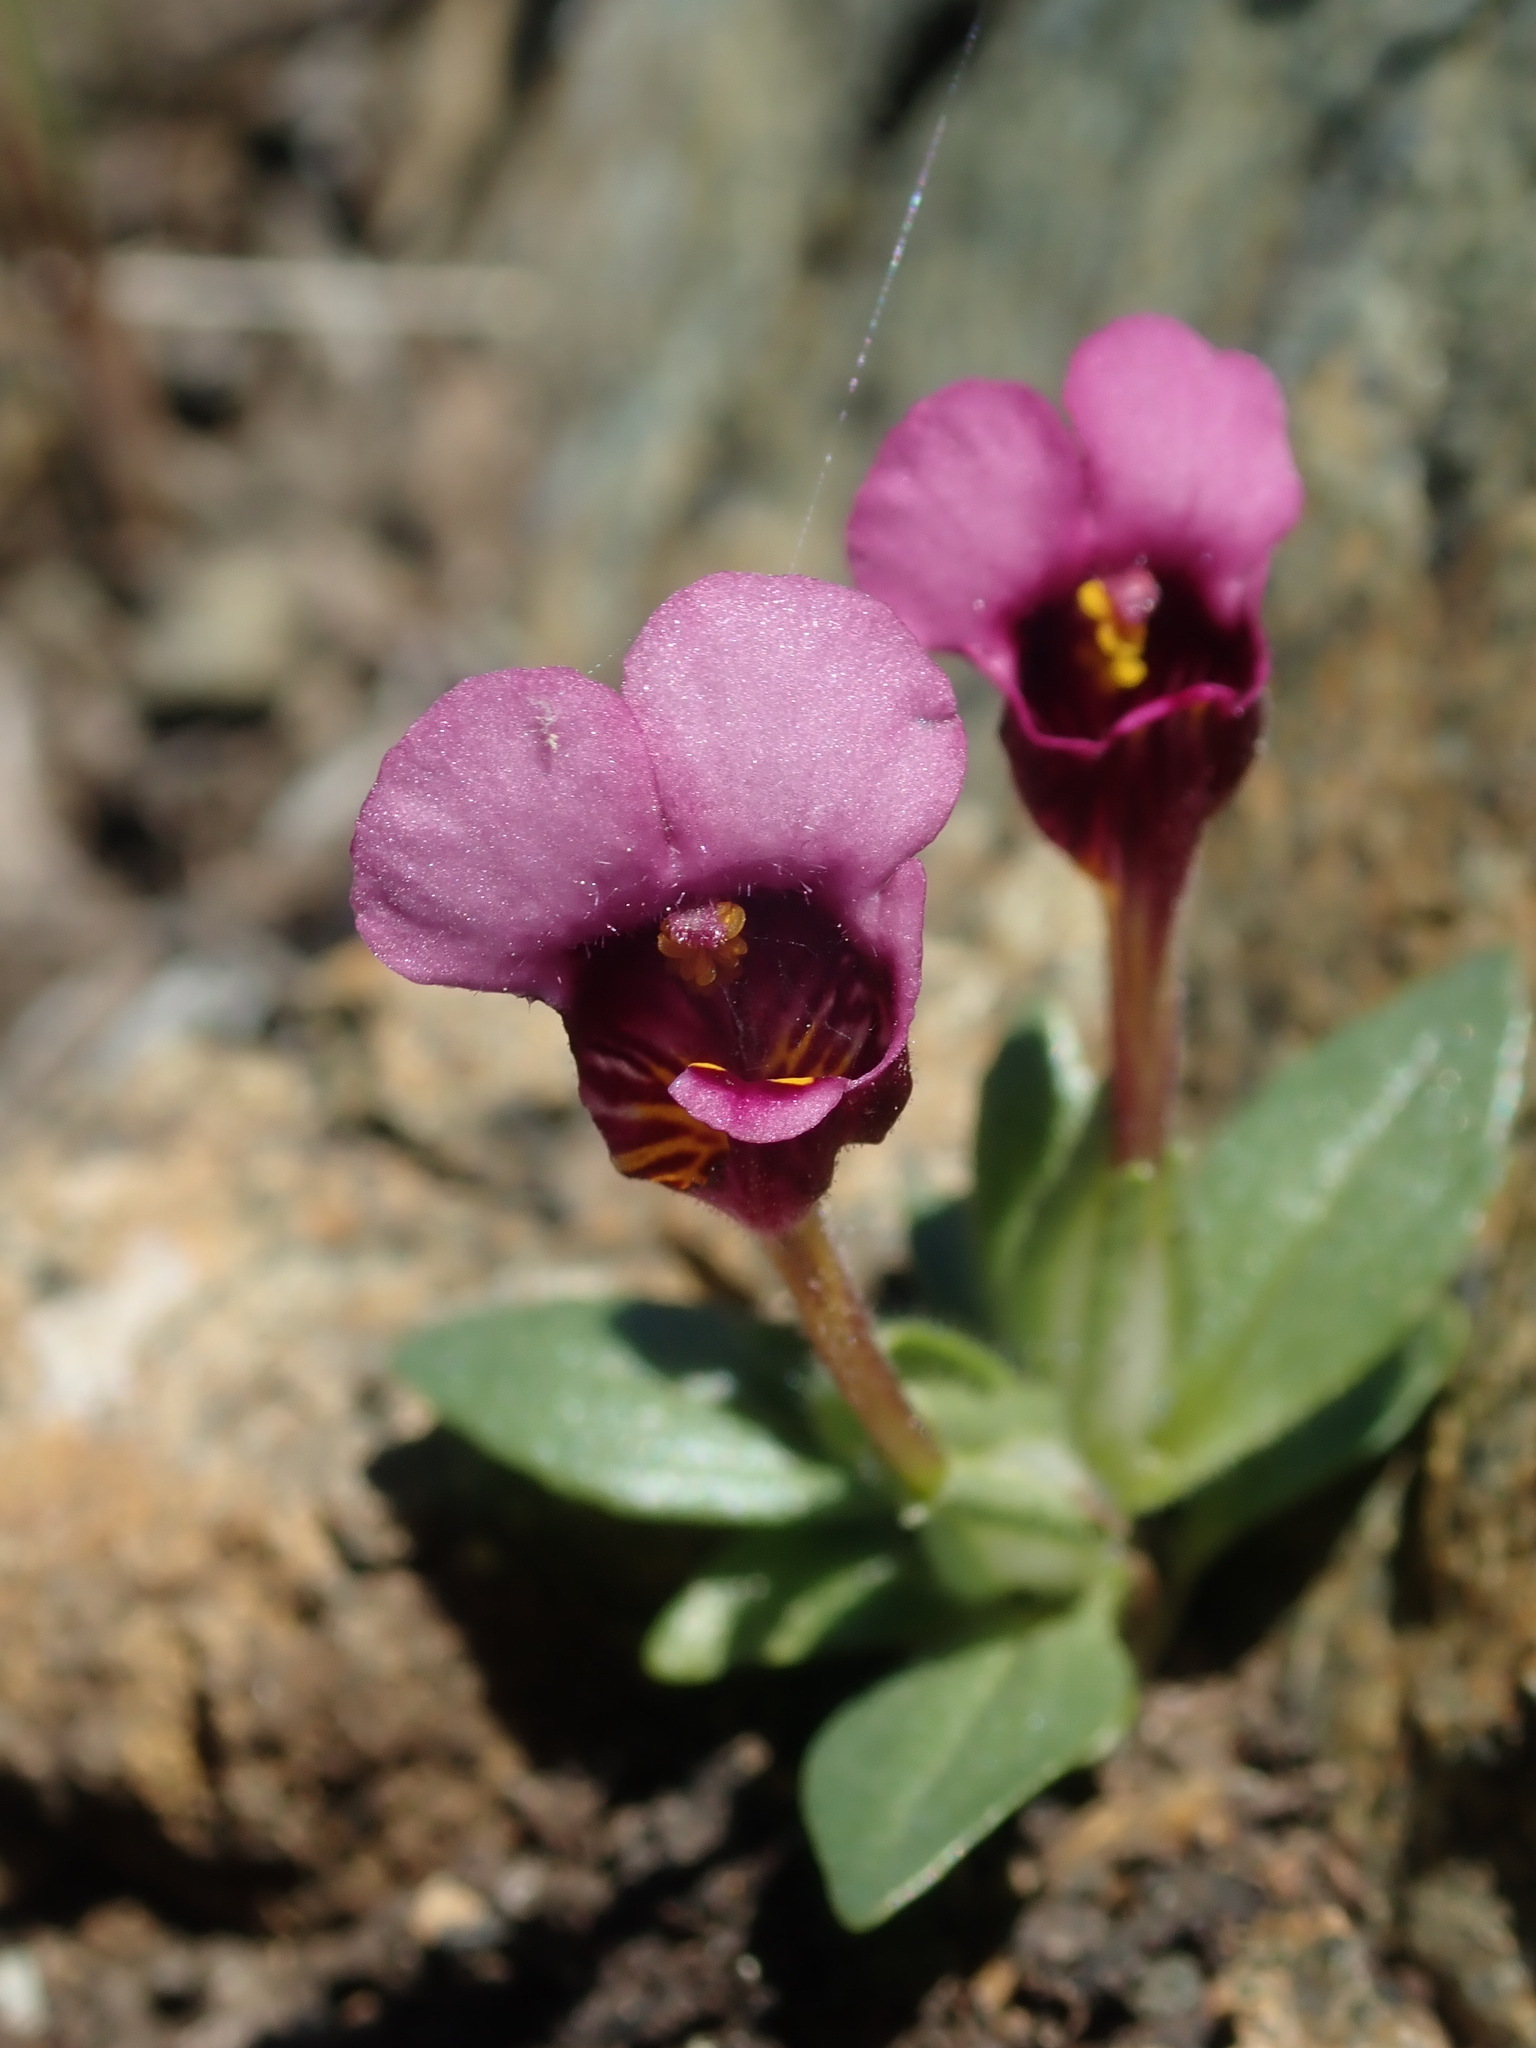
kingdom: Plantae
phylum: Tracheophyta
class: Magnoliopsida
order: Lamiales
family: Phrymaceae
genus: Diplacus
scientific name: Diplacus douglasii
